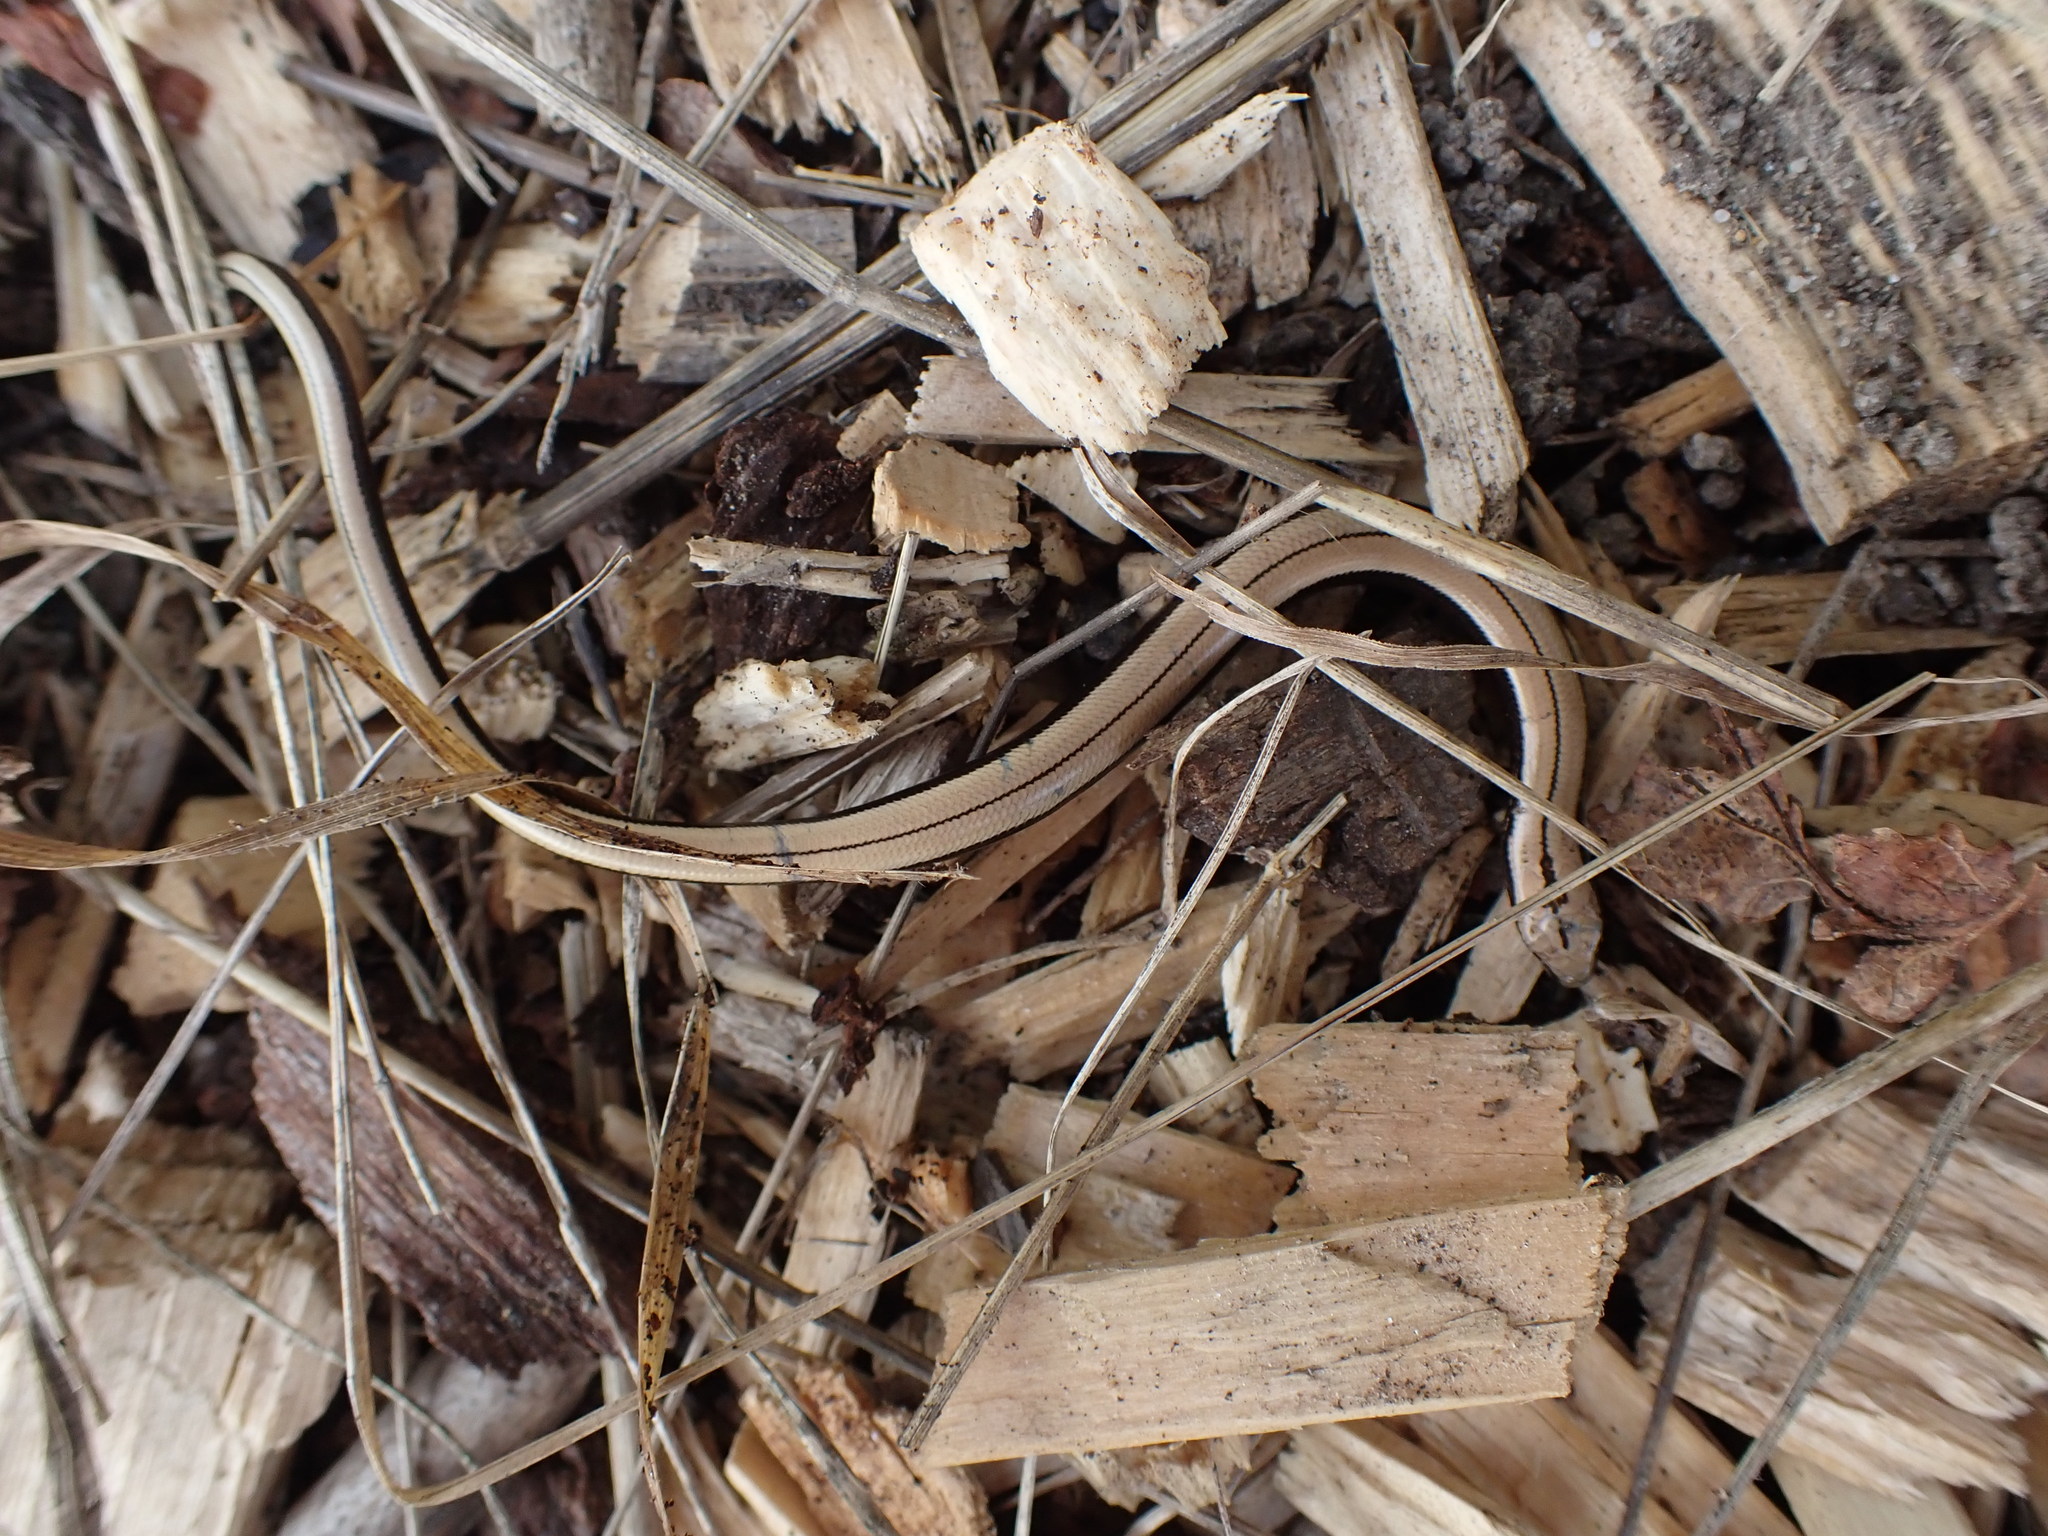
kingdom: Animalia
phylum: Chordata
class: Squamata
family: Anguidae
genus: Anguis
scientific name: Anguis fragilis
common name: Slow worm
